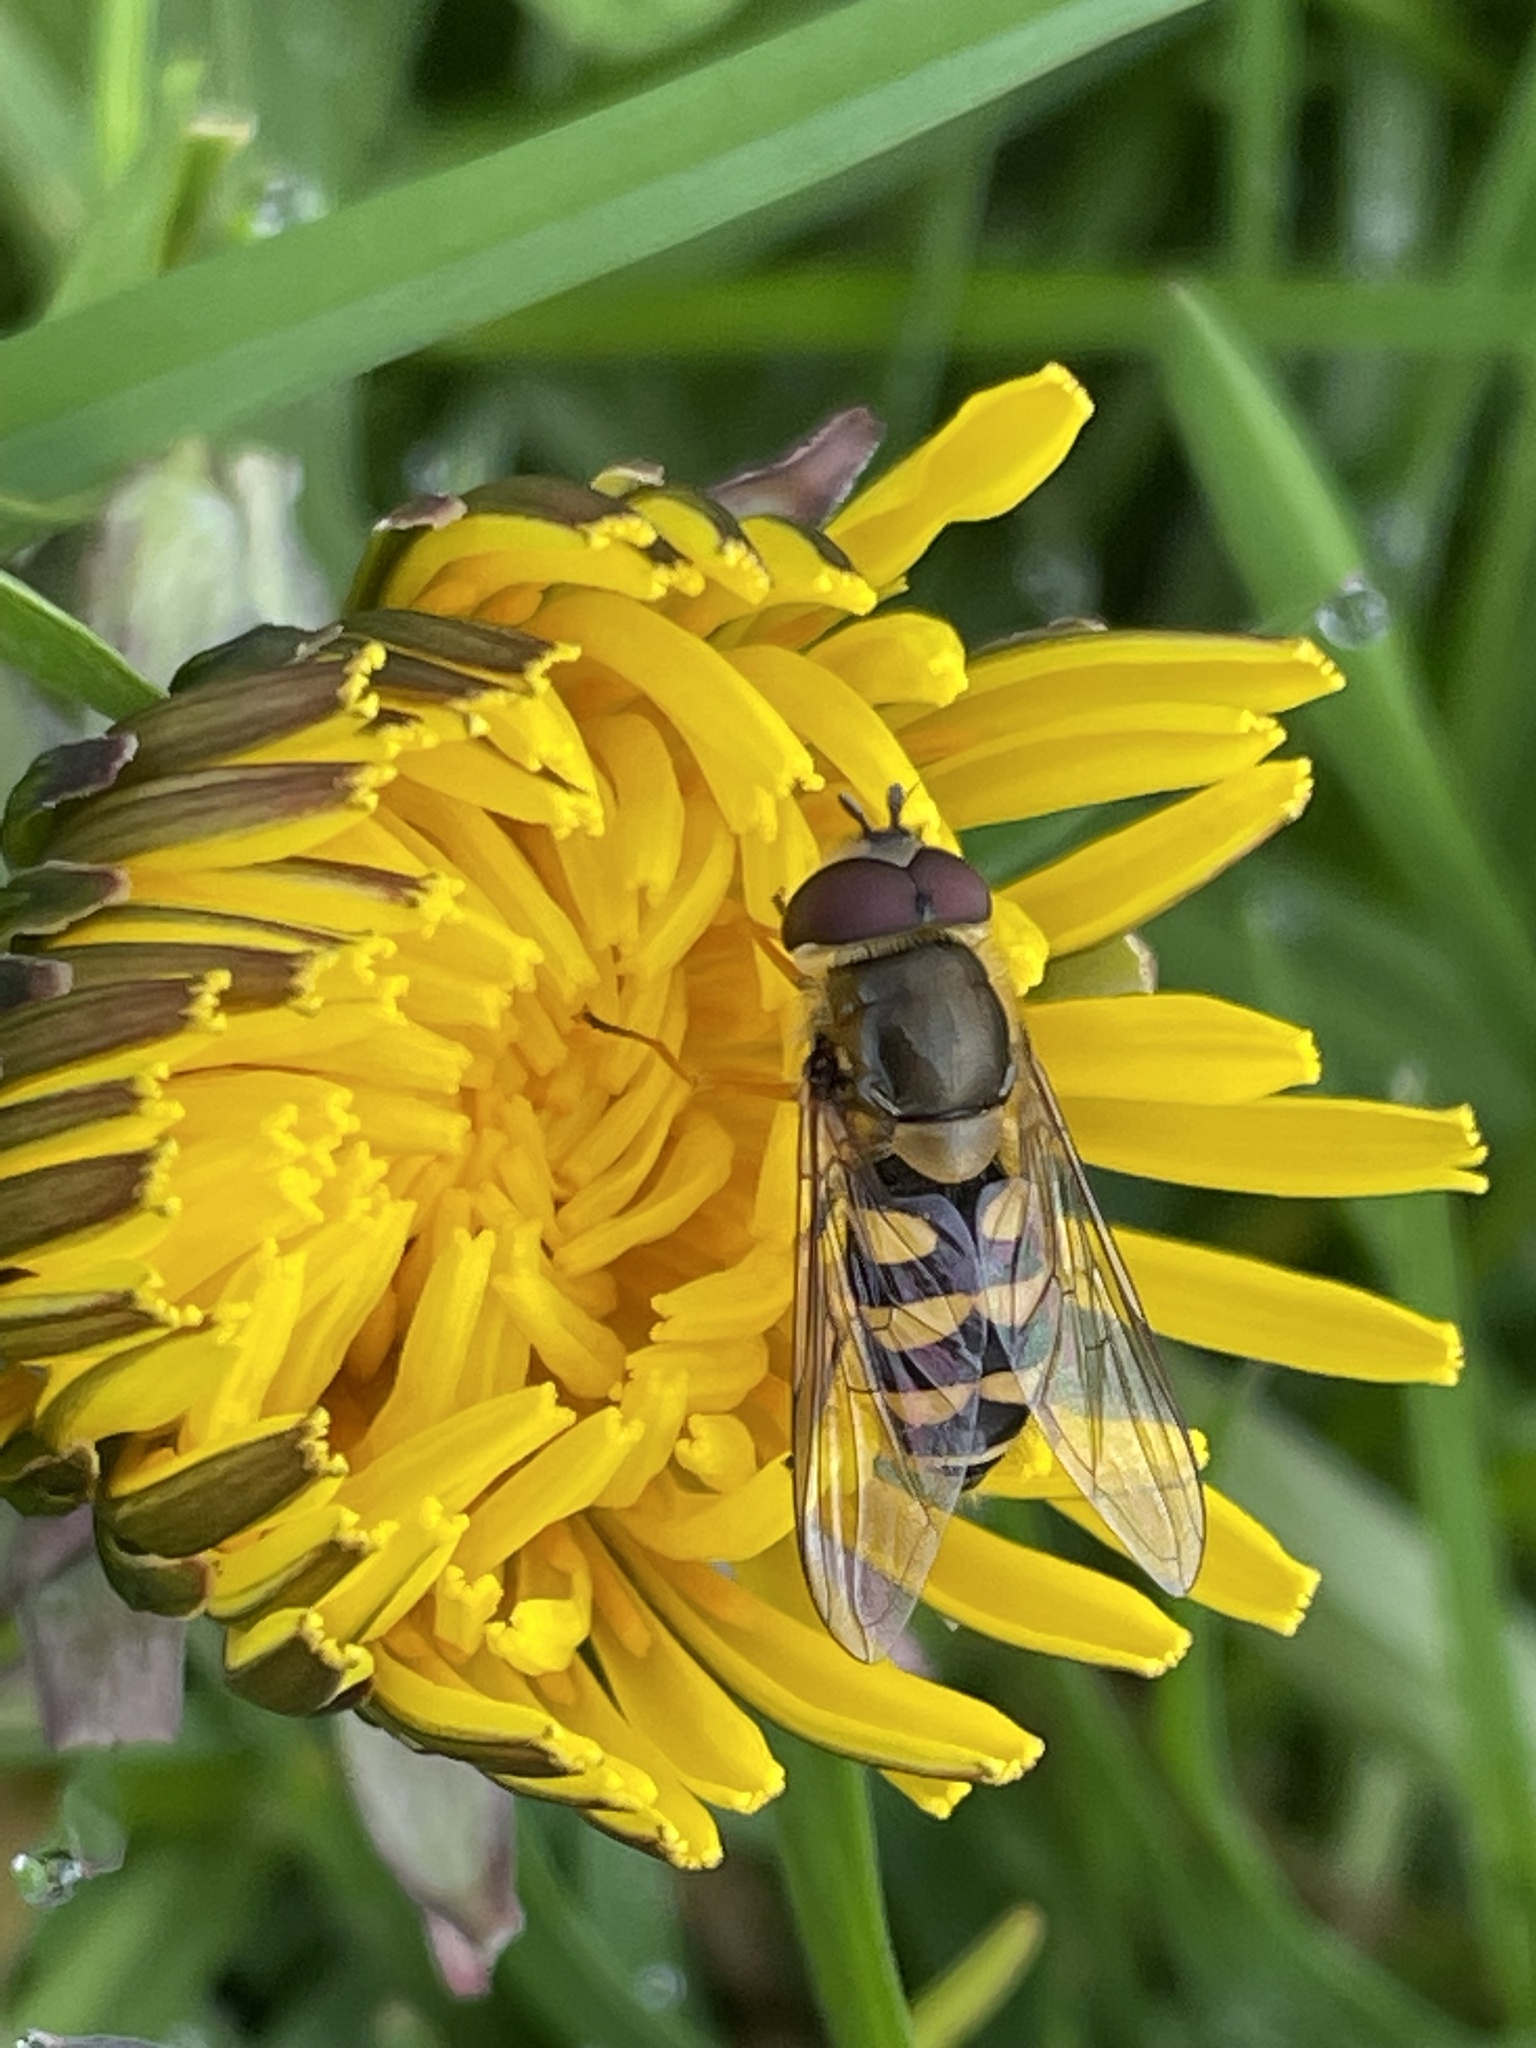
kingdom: Animalia
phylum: Arthropoda
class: Insecta
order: Diptera
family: Syrphidae
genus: Syrphus
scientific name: Syrphus
